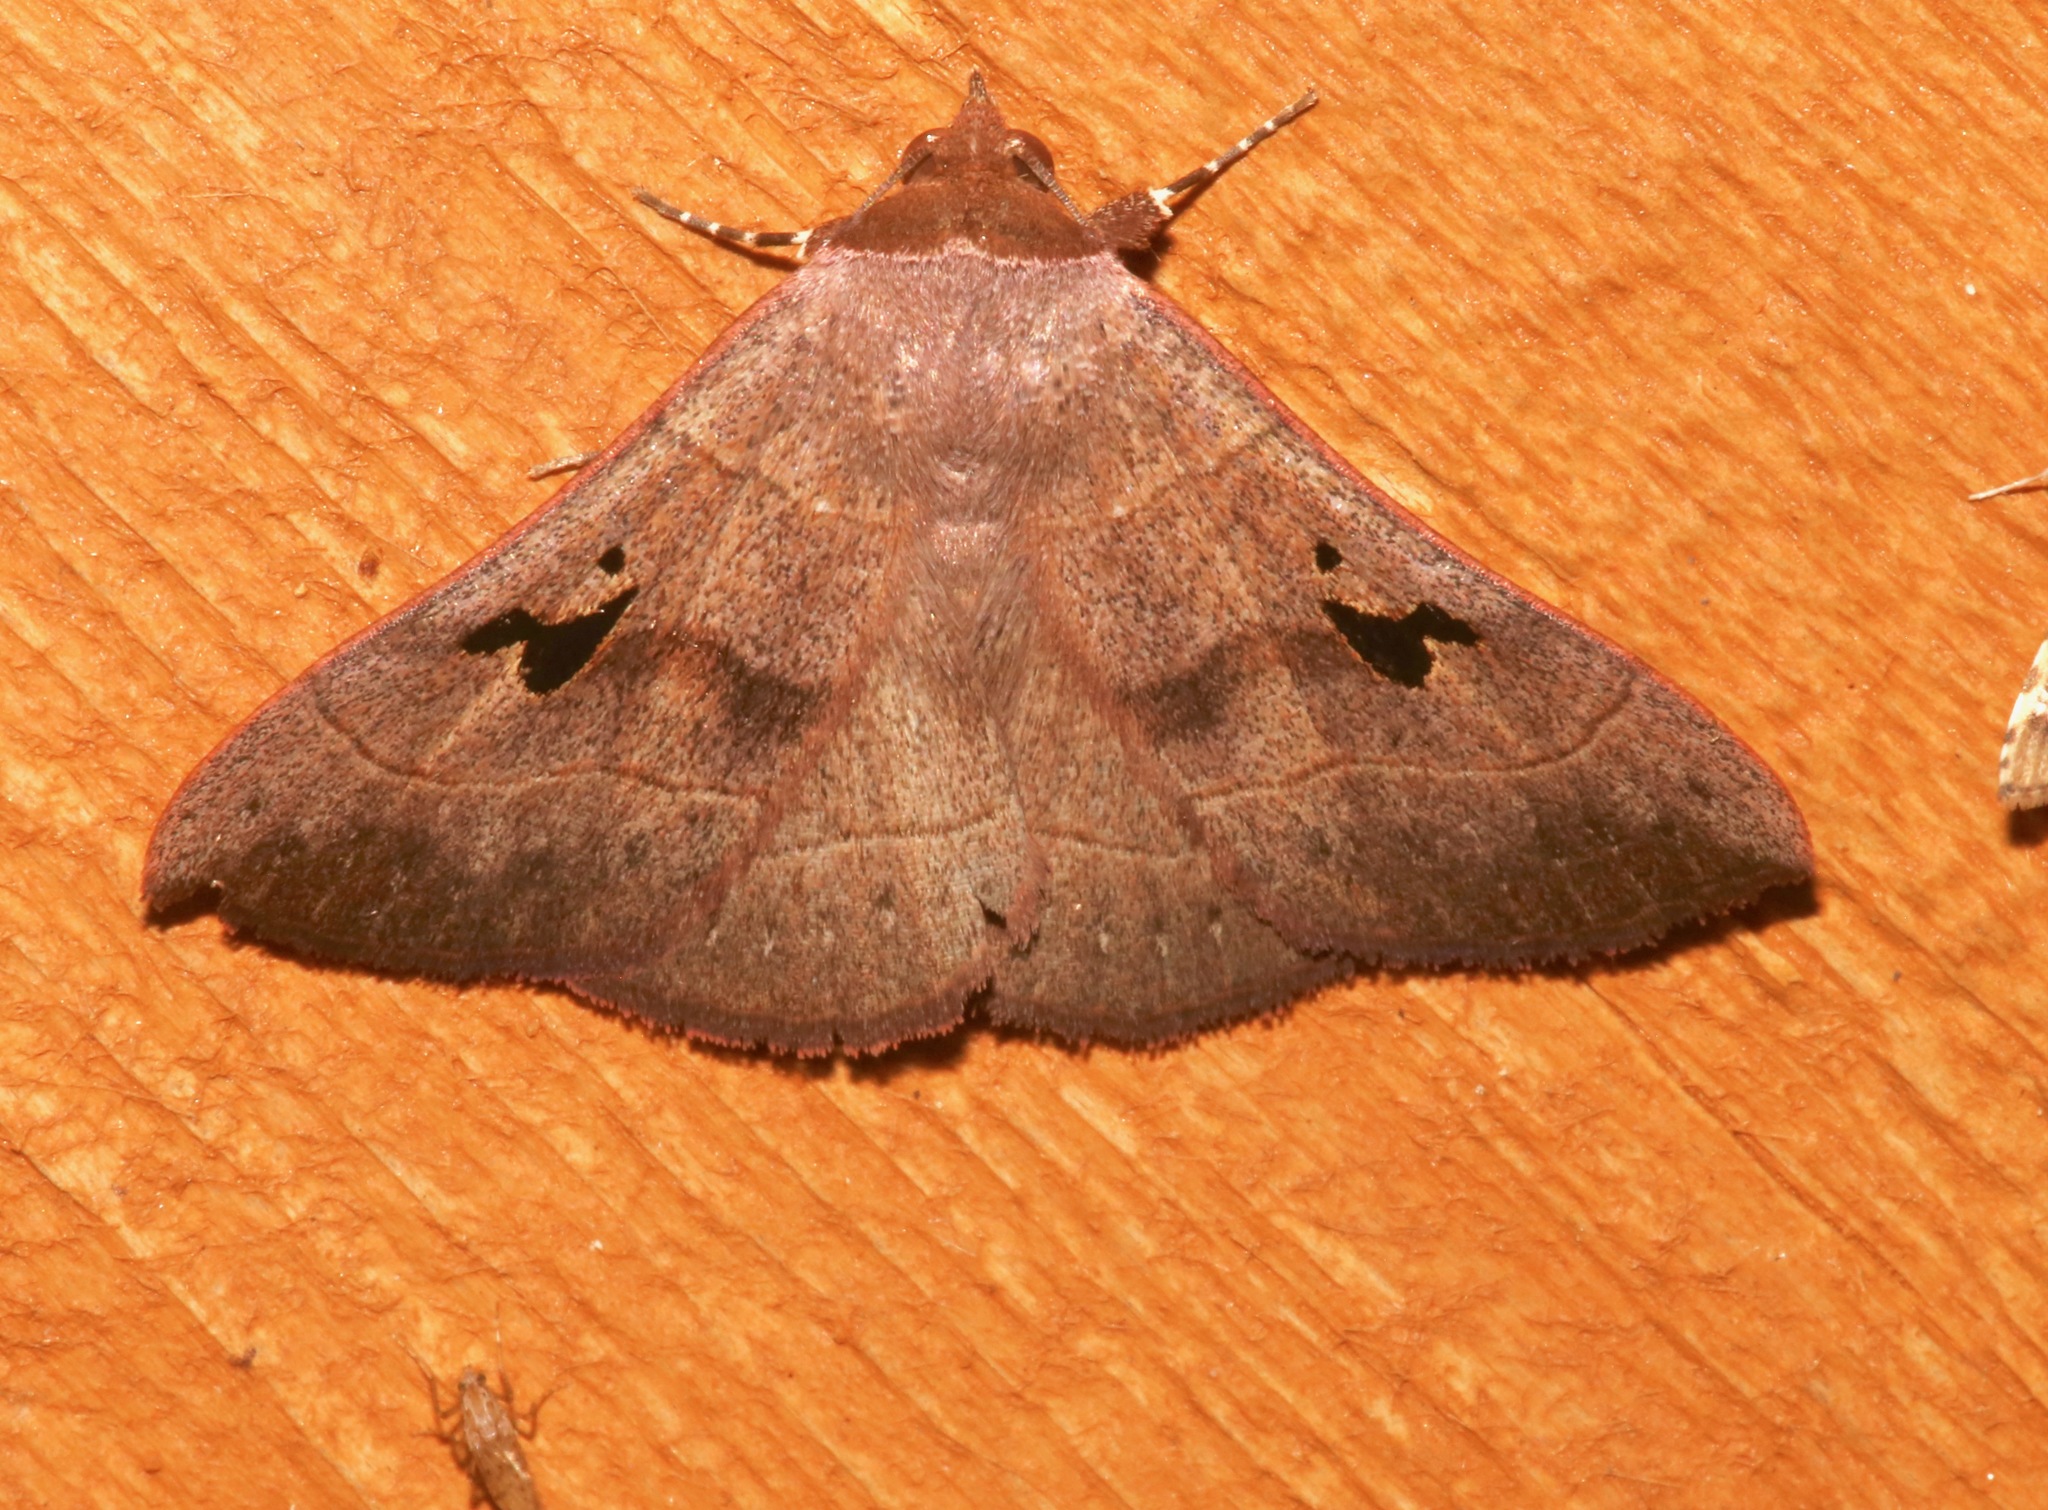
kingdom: Animalia
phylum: Arthropoda
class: Insecta
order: Lepidoptera
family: Erebidae
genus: Panopoda
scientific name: Panopoda carneicosta
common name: Brown panopoda moth
